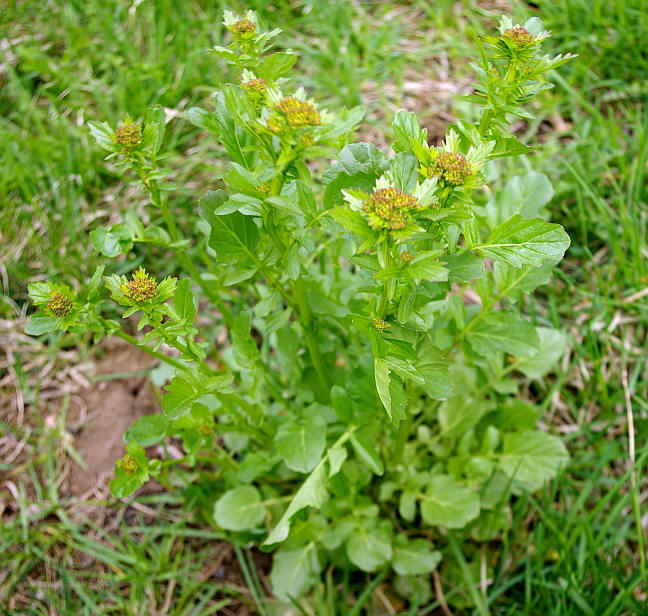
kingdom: Plantae
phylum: Tracheophyta
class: Magnoliopsida
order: Brassicales
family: Brassicaceae
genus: Barbarea
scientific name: Barbarea vulgaris
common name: Cressy-greens
